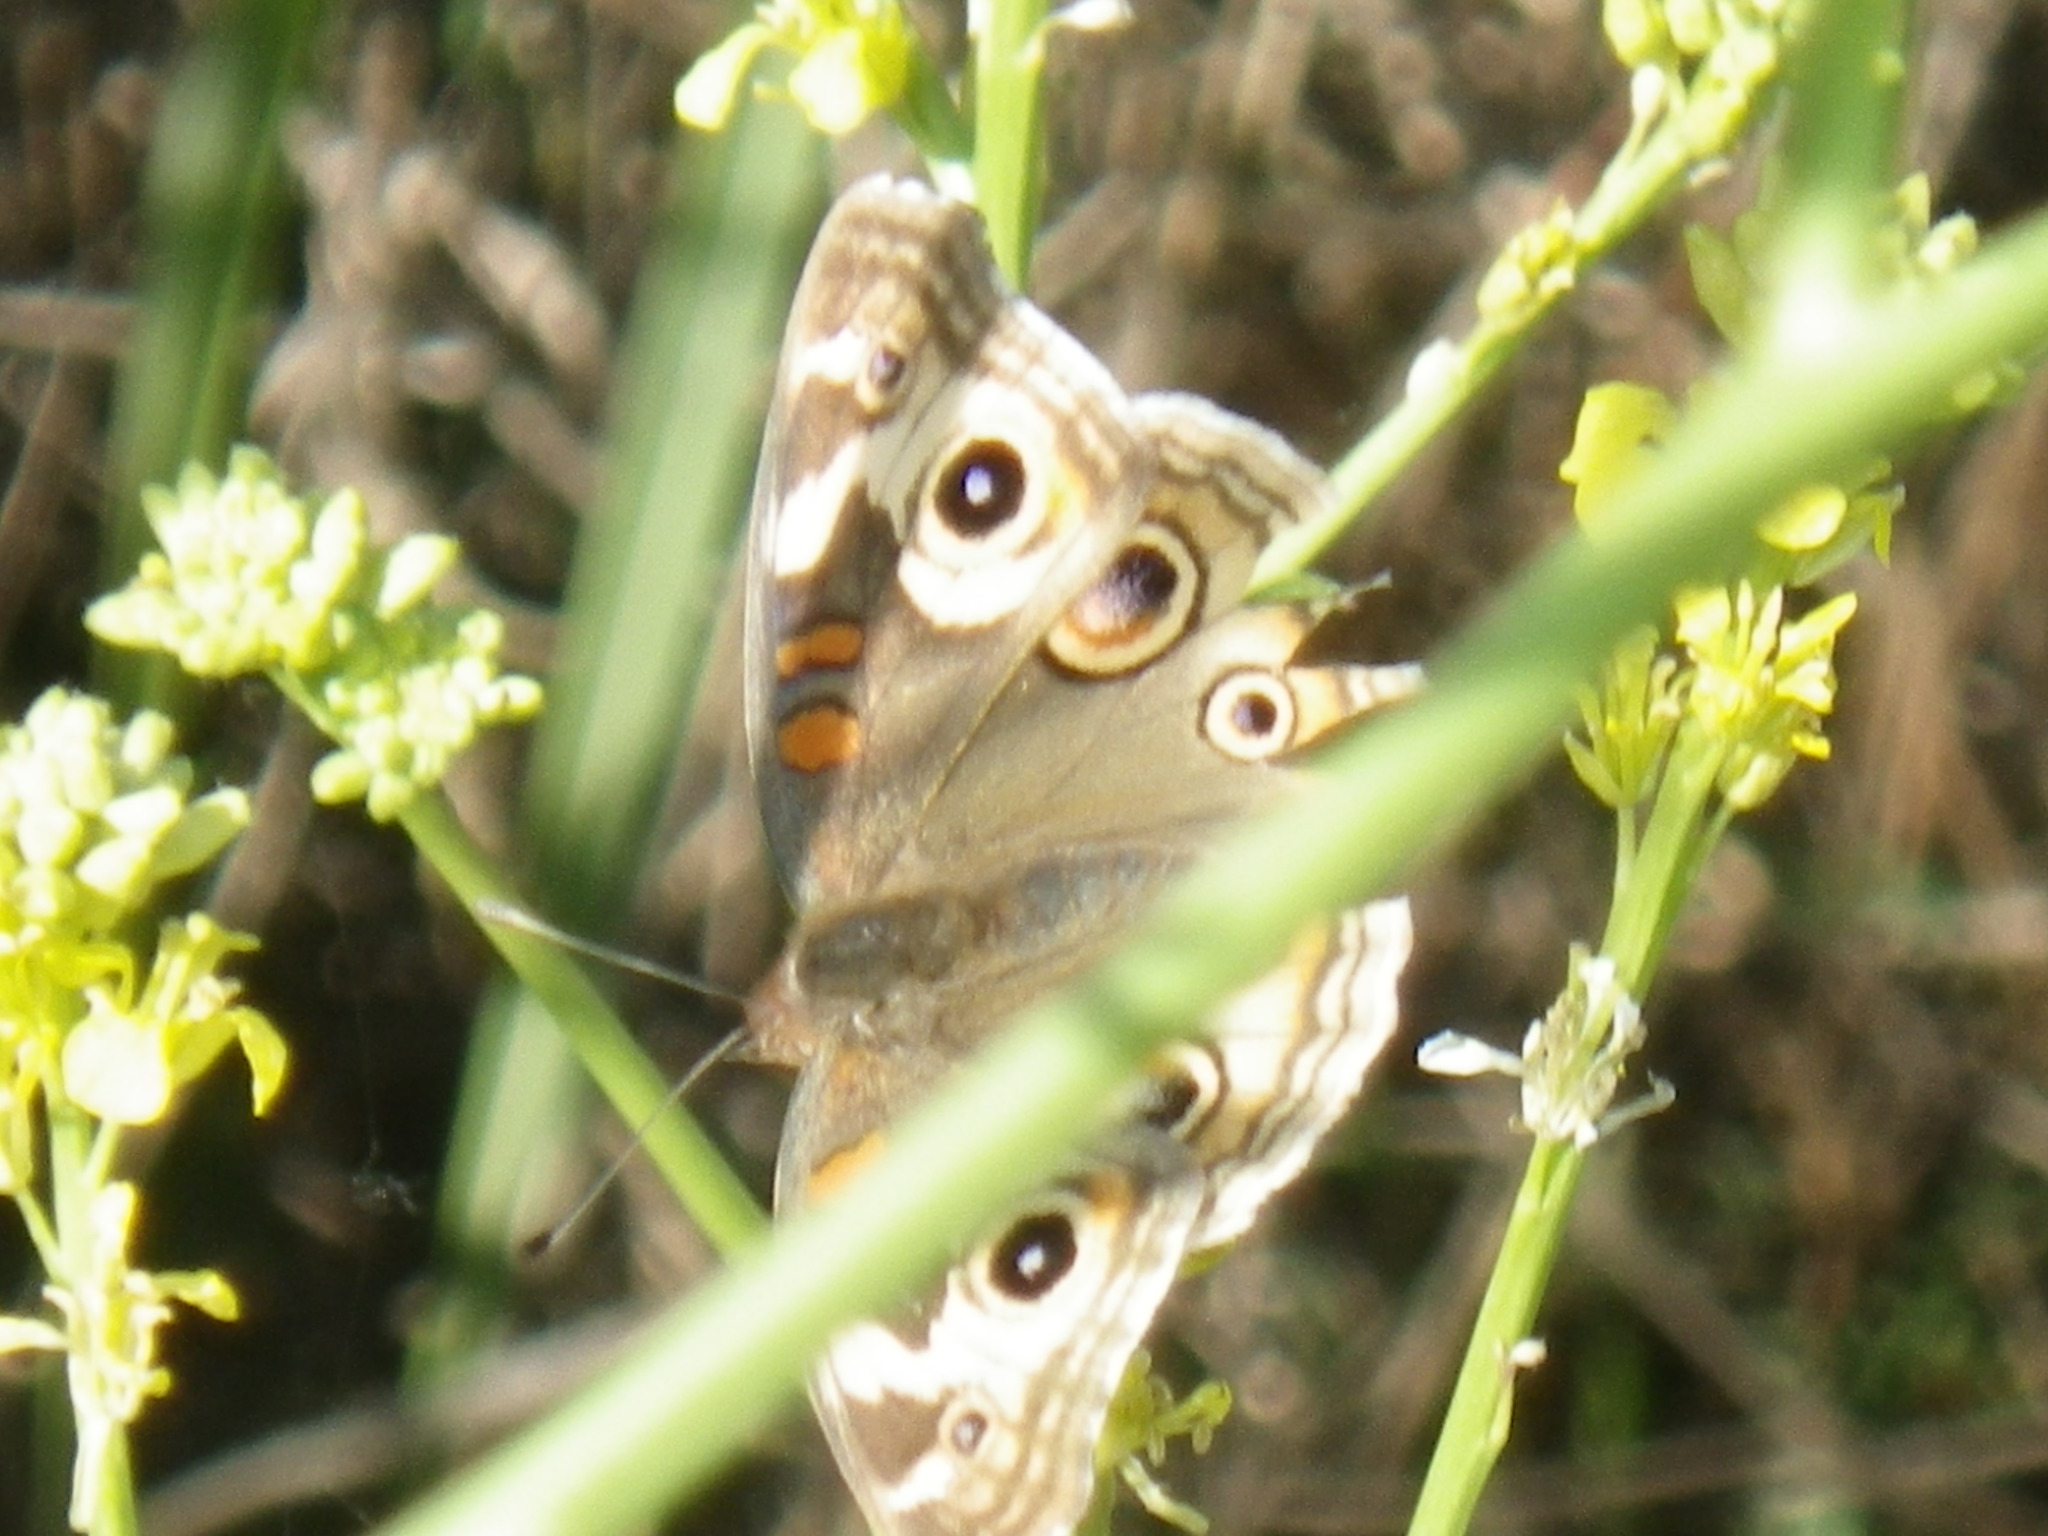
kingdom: Animalia
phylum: Arthropoda
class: Insecta
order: Lepidoptera
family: Nymphalidae
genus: Junonia
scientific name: Junonia grisea
